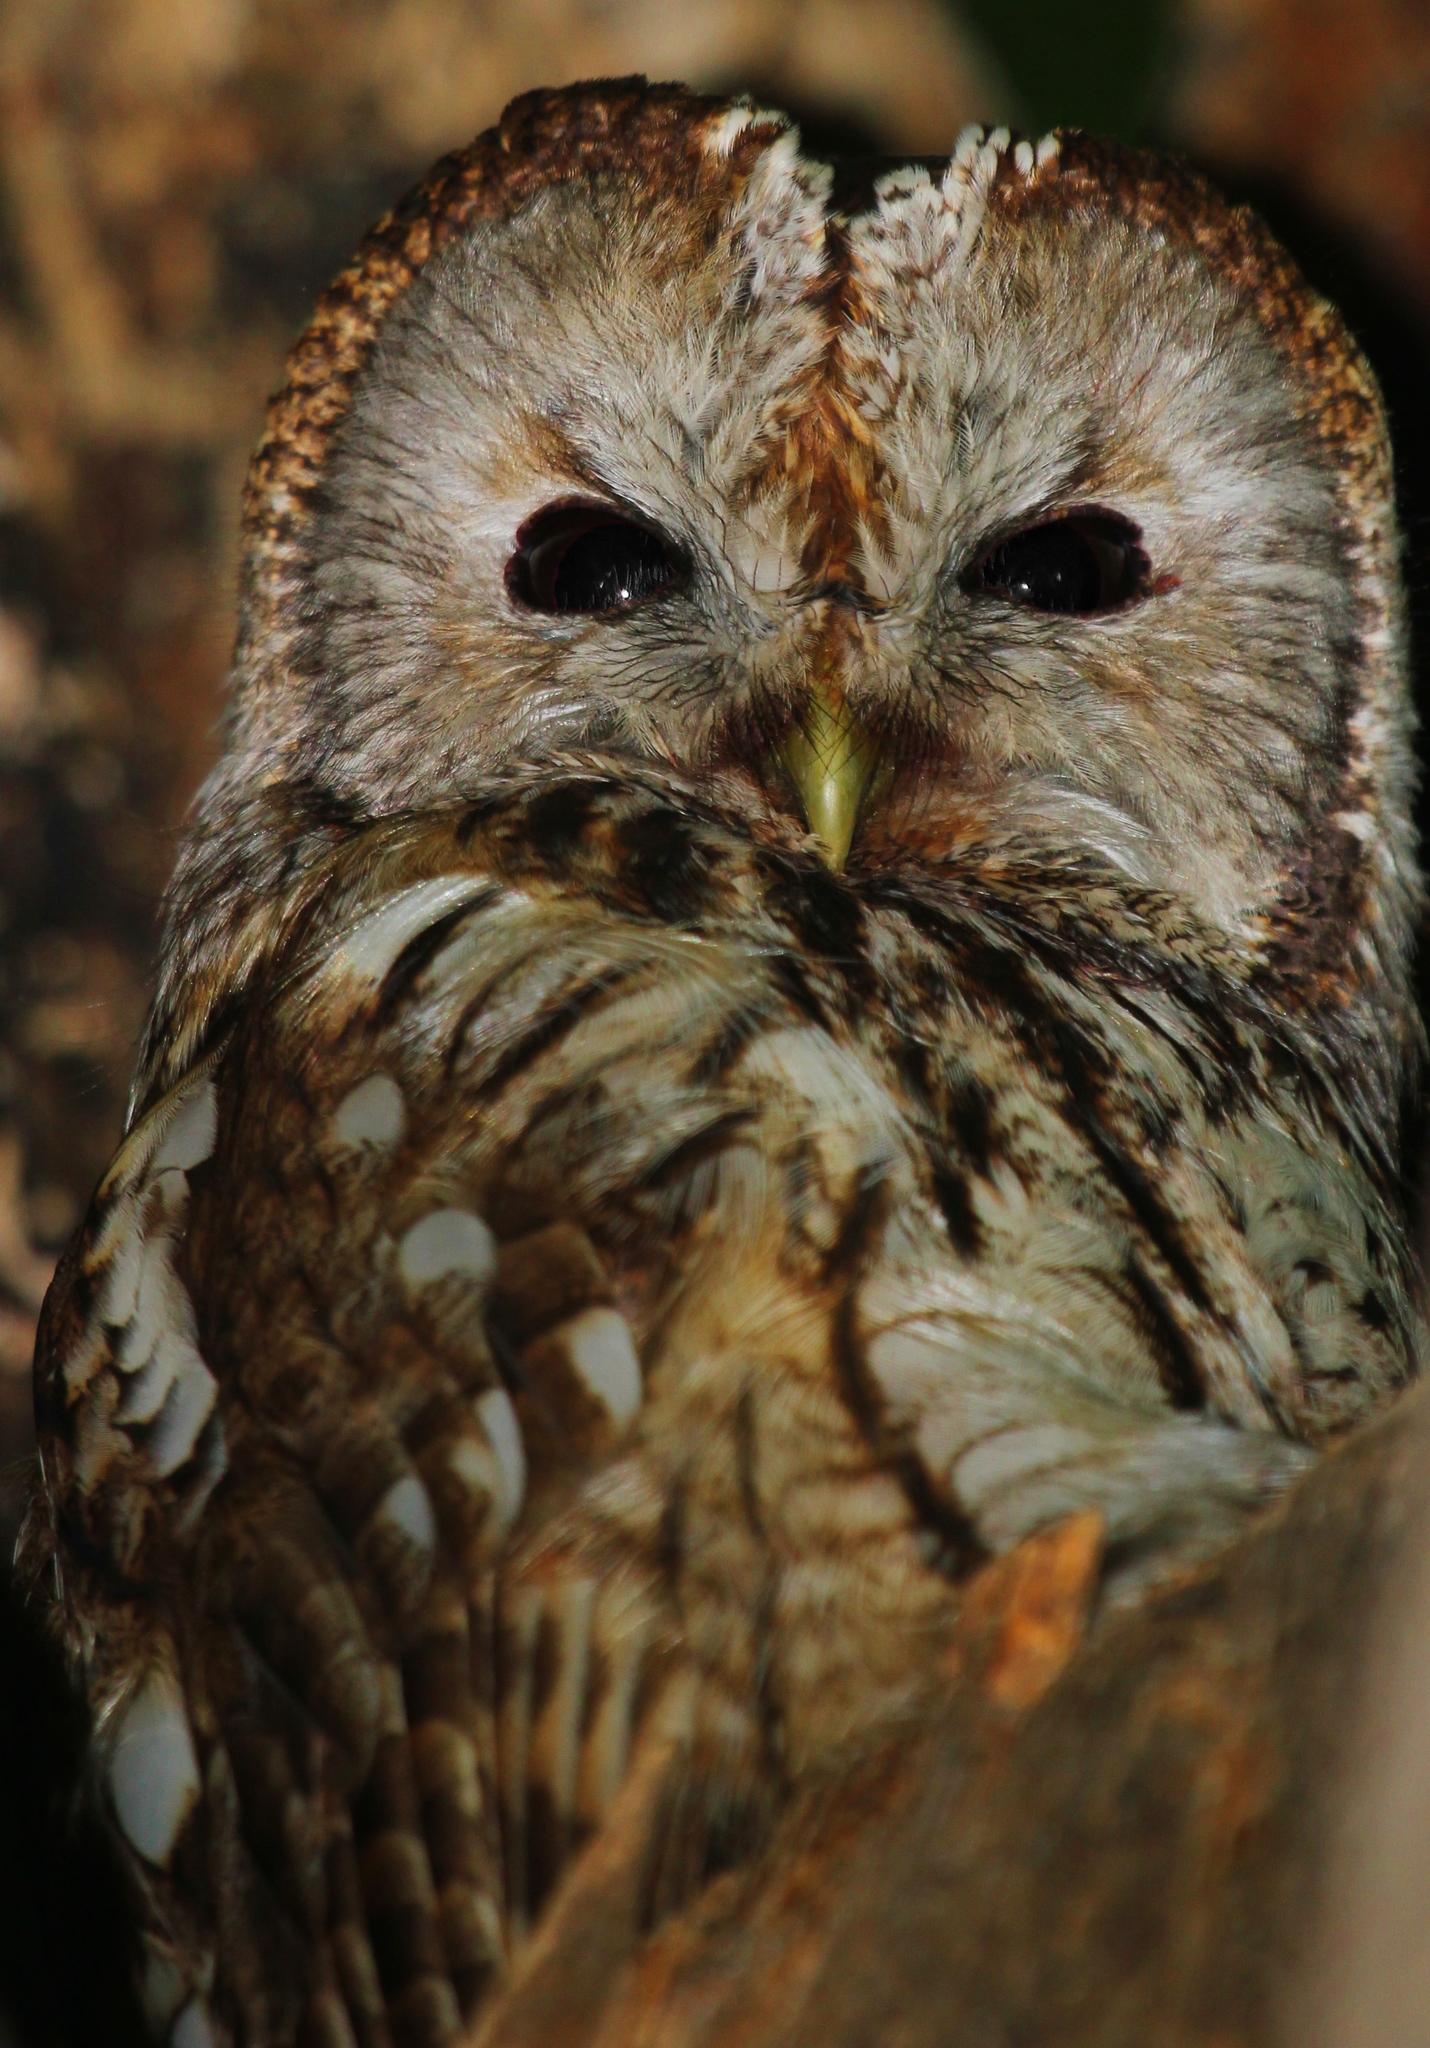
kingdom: Animalia
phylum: Chordata
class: Aves
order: Strigiformes
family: Strigidae
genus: Strix
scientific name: Strix aluco
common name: Tawny owl
